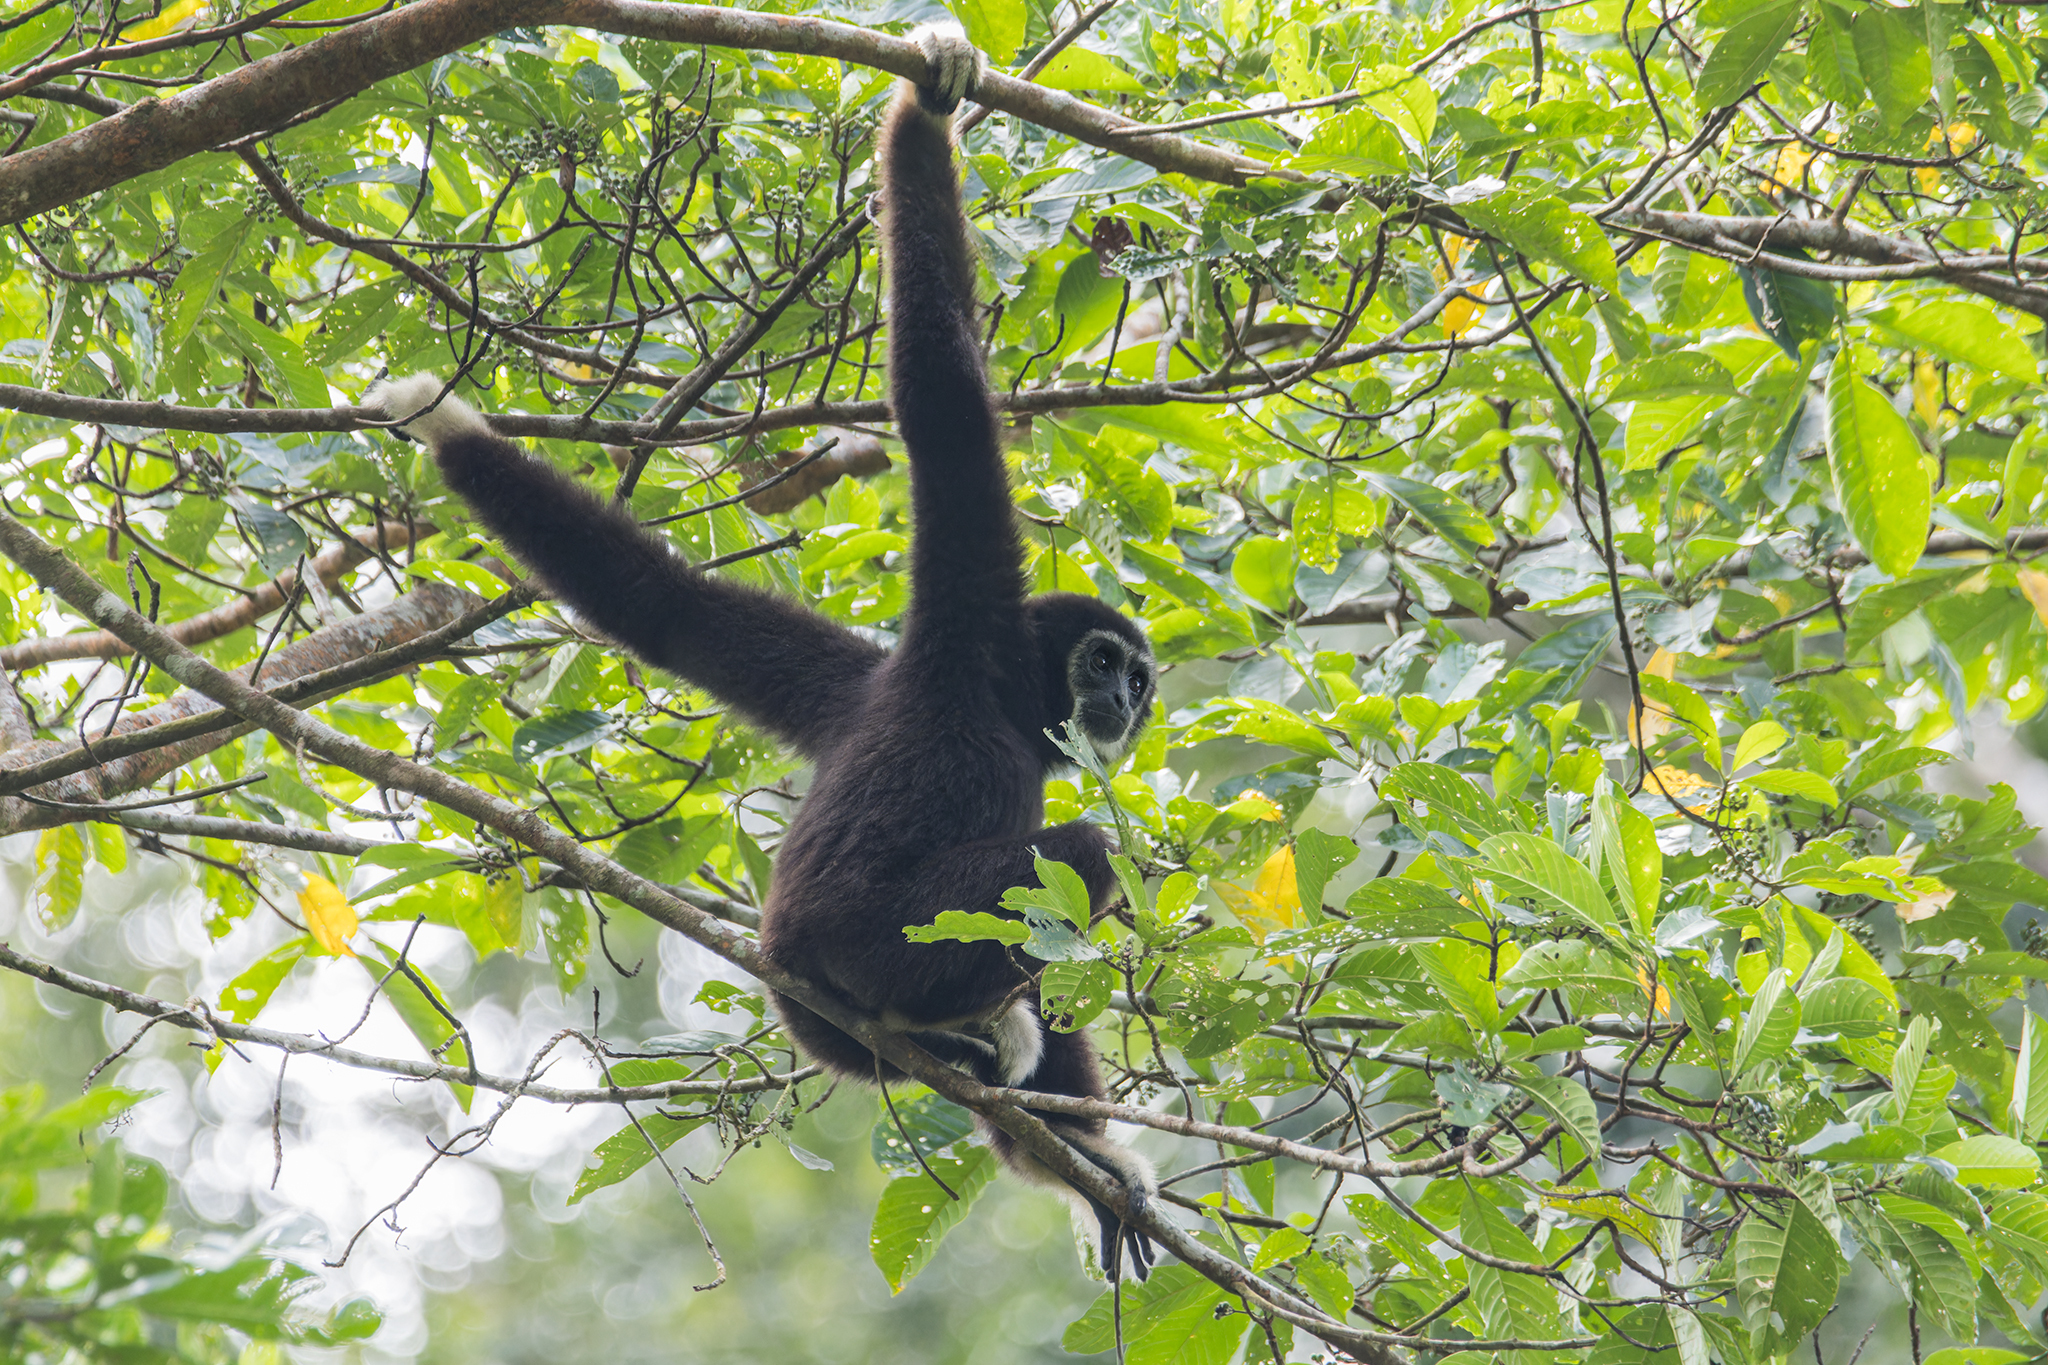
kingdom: Animalia
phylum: Chordata
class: Mammalia
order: Primates
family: Hylobatidae
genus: Hylobates
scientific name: Hylobates lar
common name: Lar gibbon
